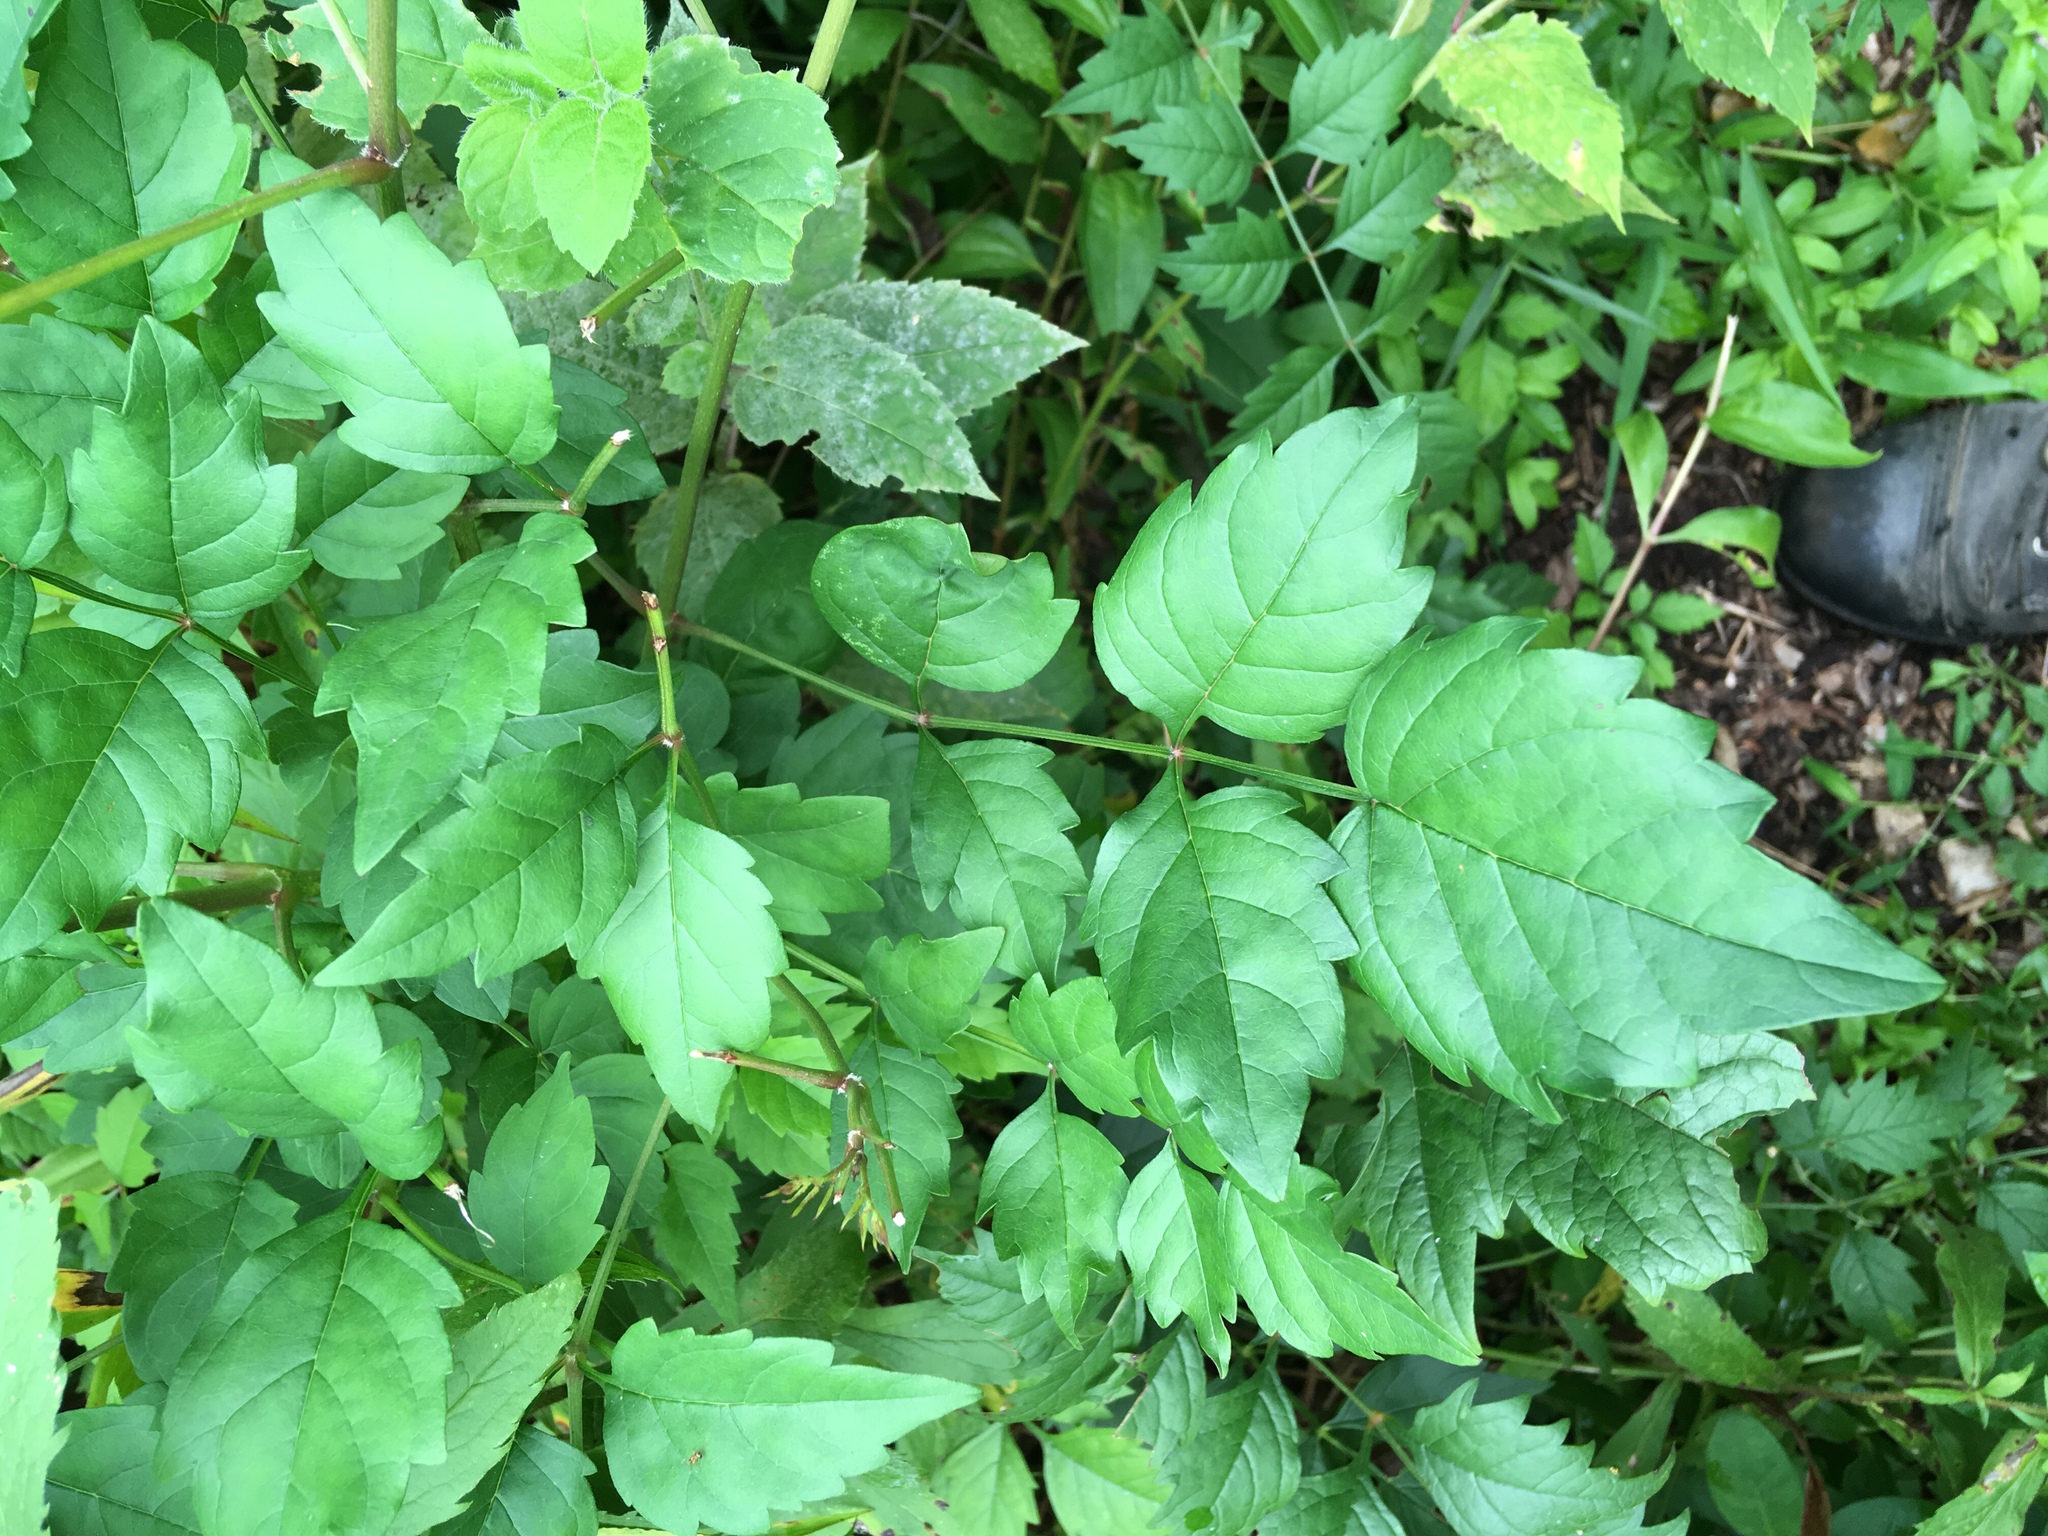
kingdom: Plantae
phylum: Tracheophyta
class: Magnoliopsida
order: Lamiales
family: Bignoniaceae
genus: Campsis
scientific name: Campsis radicans
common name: Trumpet-creeper
